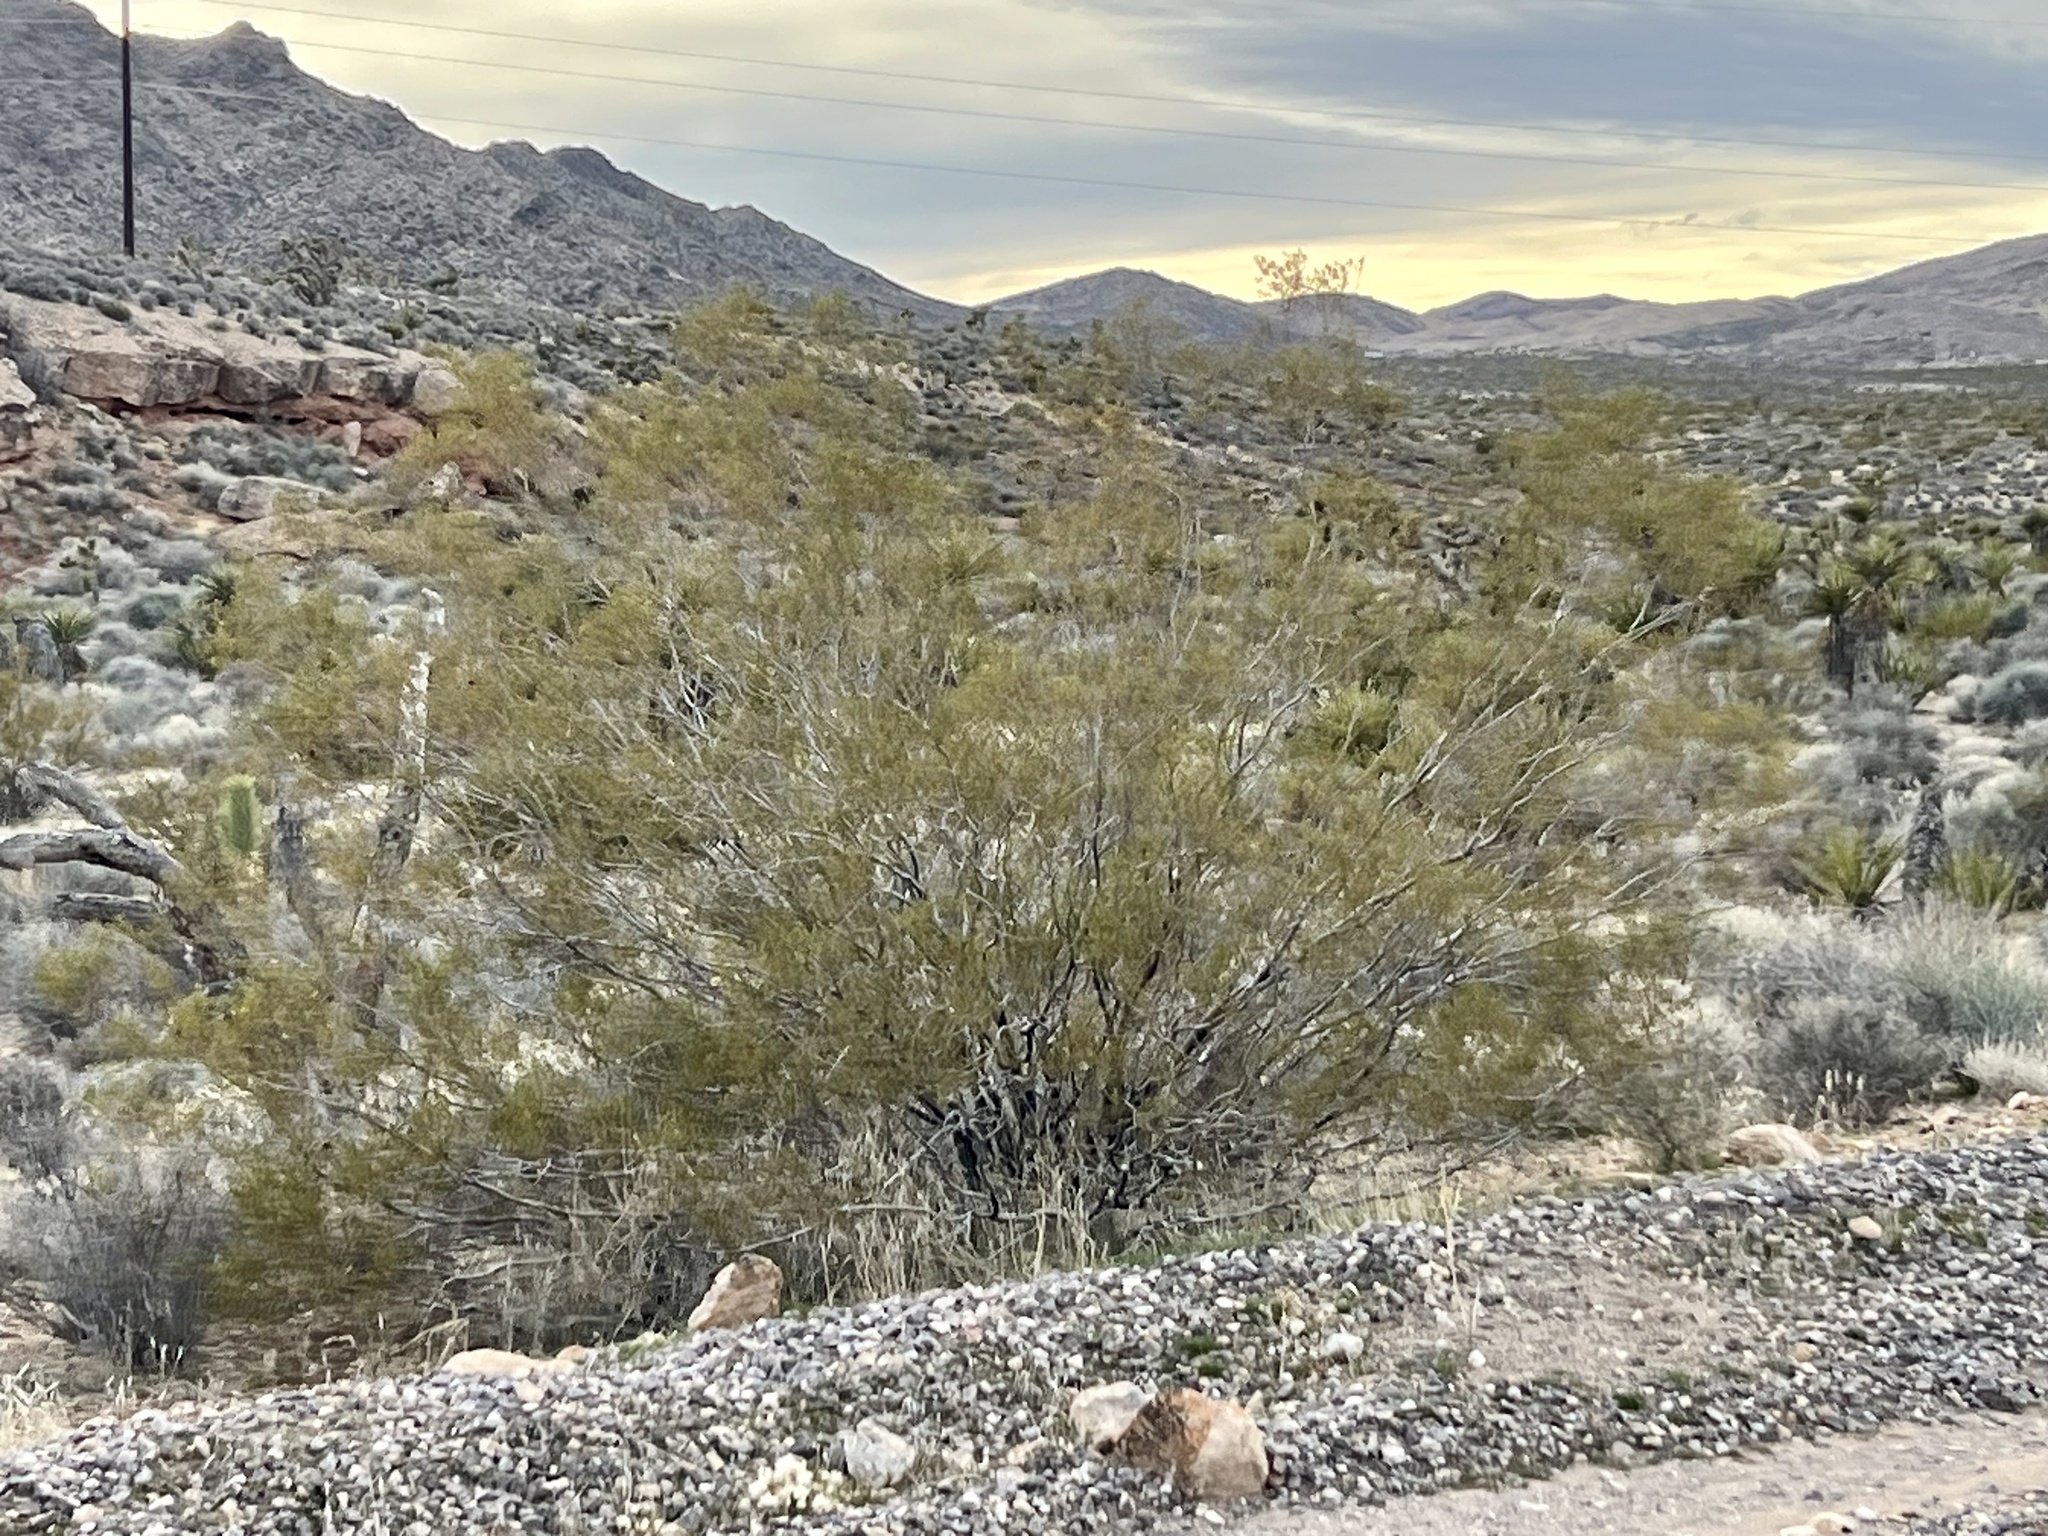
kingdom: Plantae
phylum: Tracheophyta
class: Magnoliopsida
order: Zygophyllales
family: Zygophyllaceae
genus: Larrea
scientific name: Larrea tridentata
